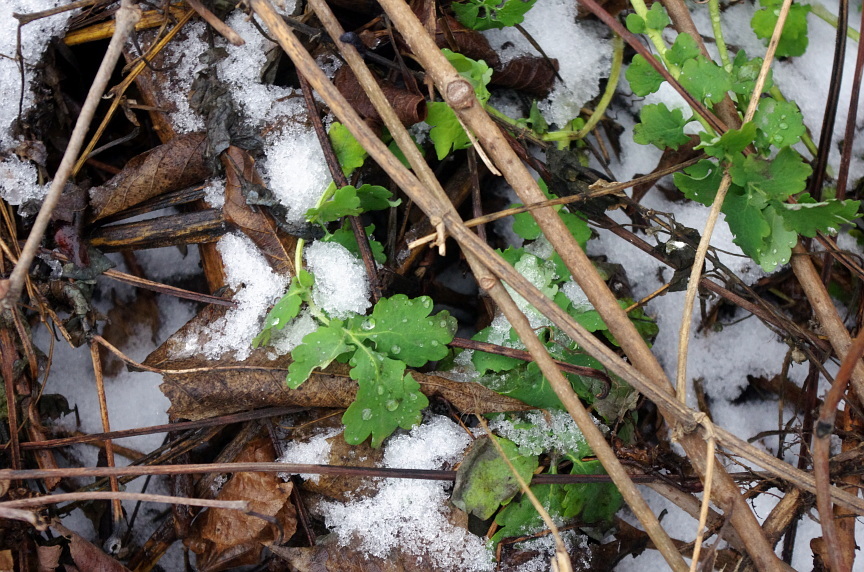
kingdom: Plantae
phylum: Tracheophyta
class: Magnoliopsida
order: Ranunculales
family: Papaveraceae
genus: Chelidonium
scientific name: Chelidonium majus
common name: Greater celandine
